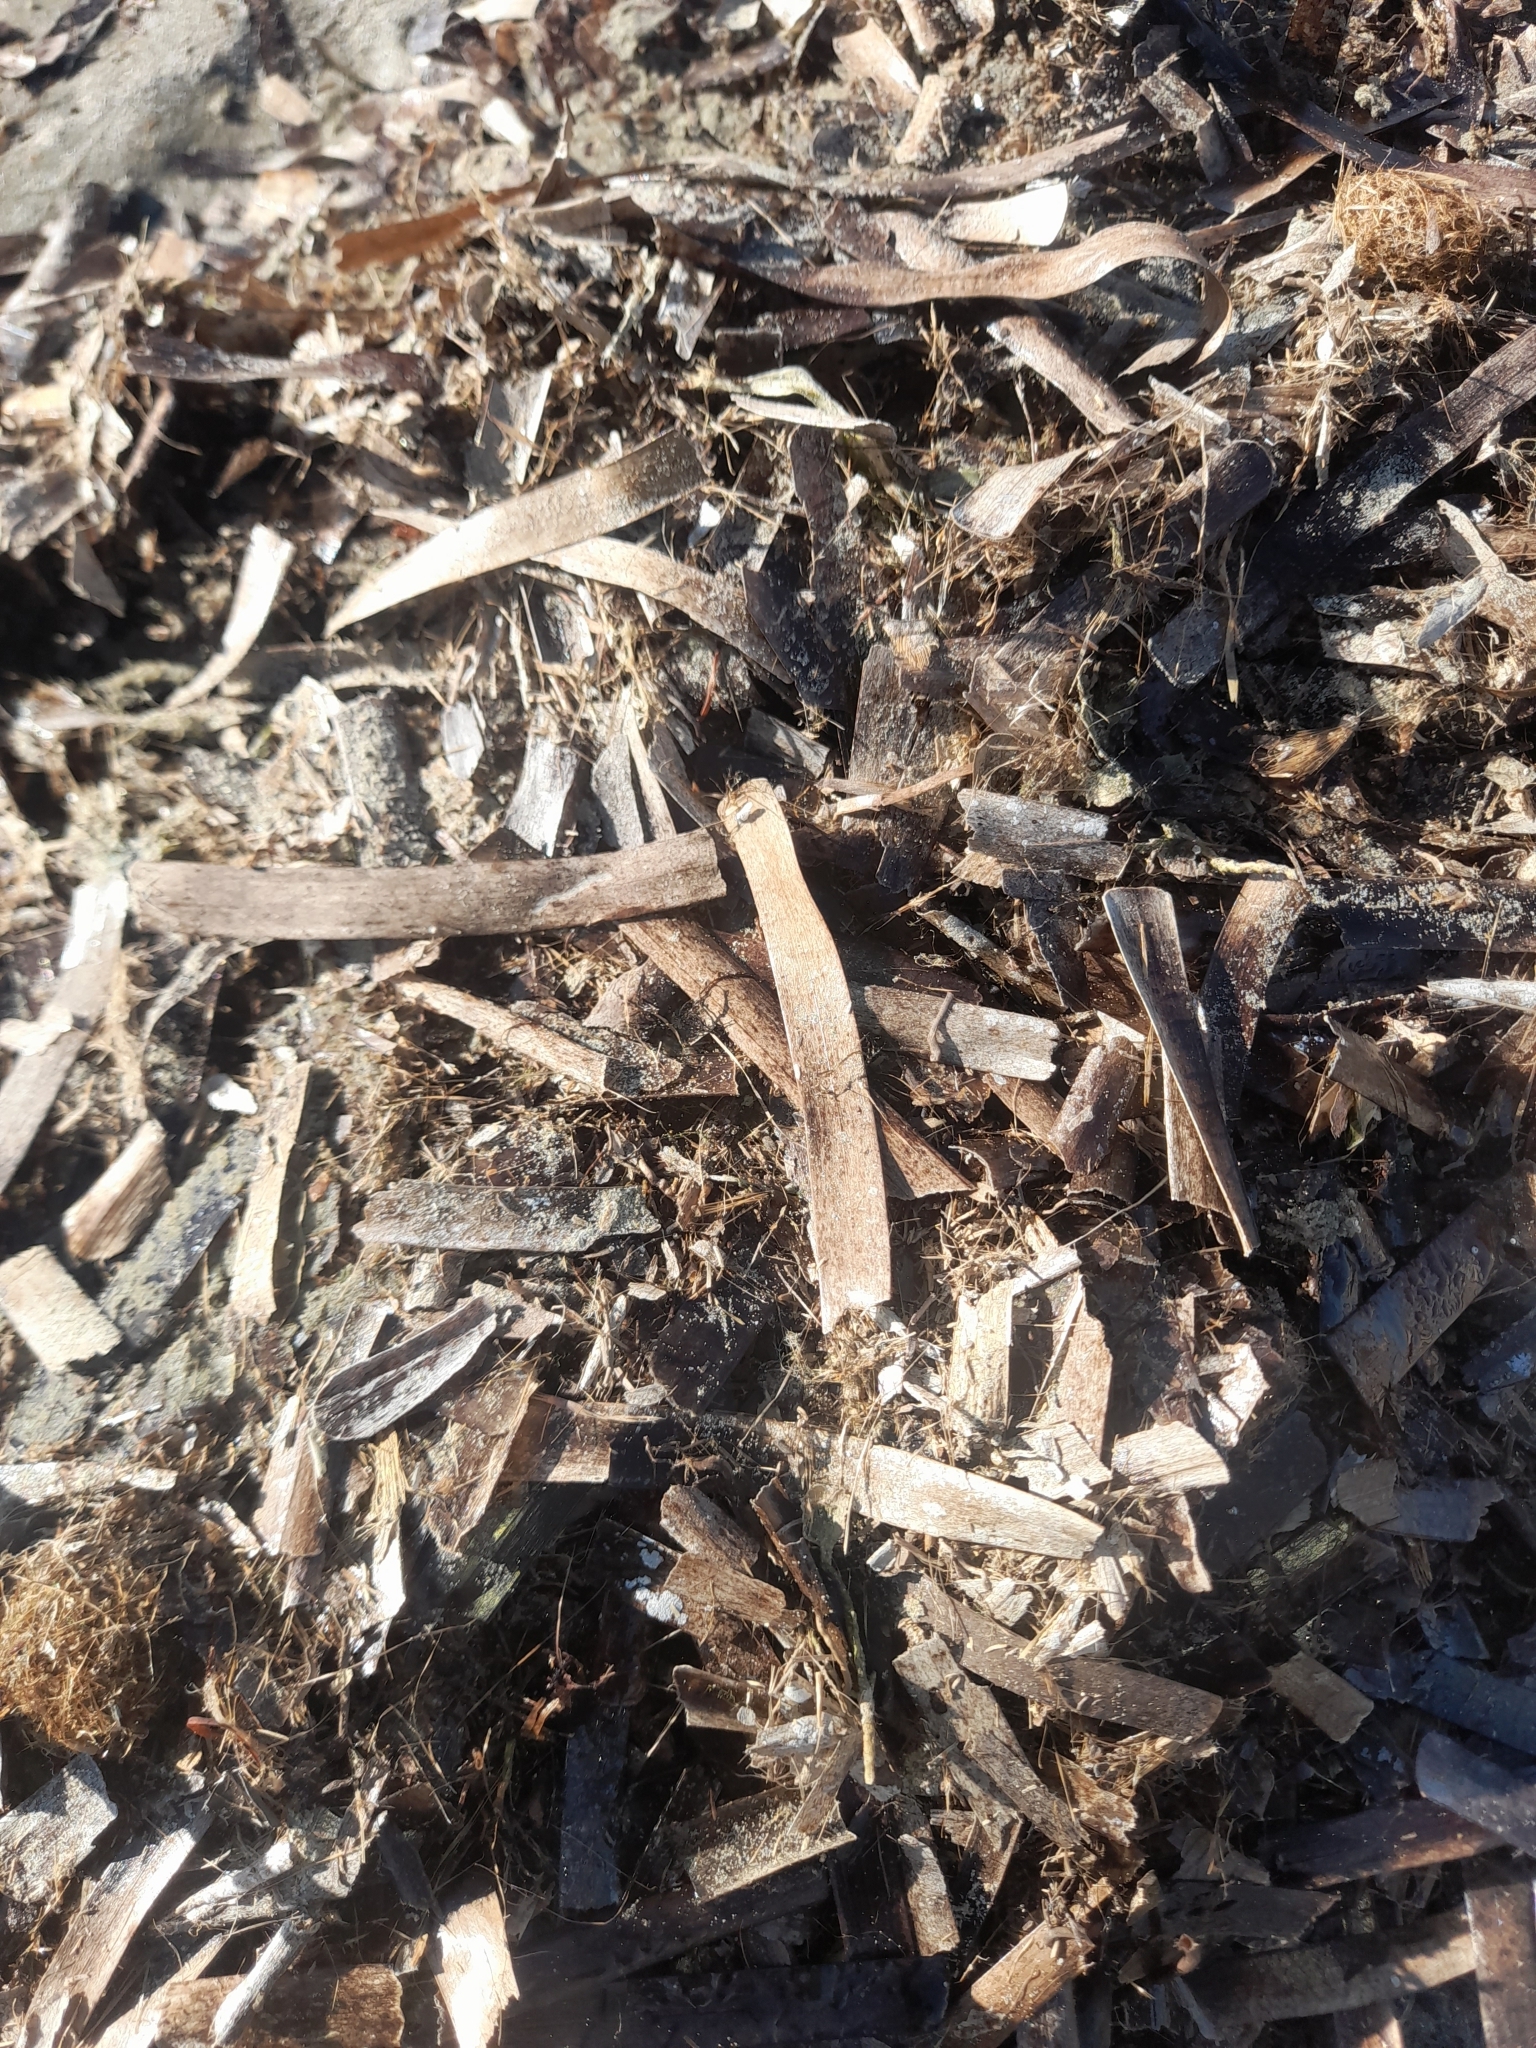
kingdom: Plantae
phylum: Tracheophyta
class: Liliopsida
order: Alismatales
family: Posidoniaceae
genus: Posidonia
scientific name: Posidonia oceanica
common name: Mediterranean tapeweed
